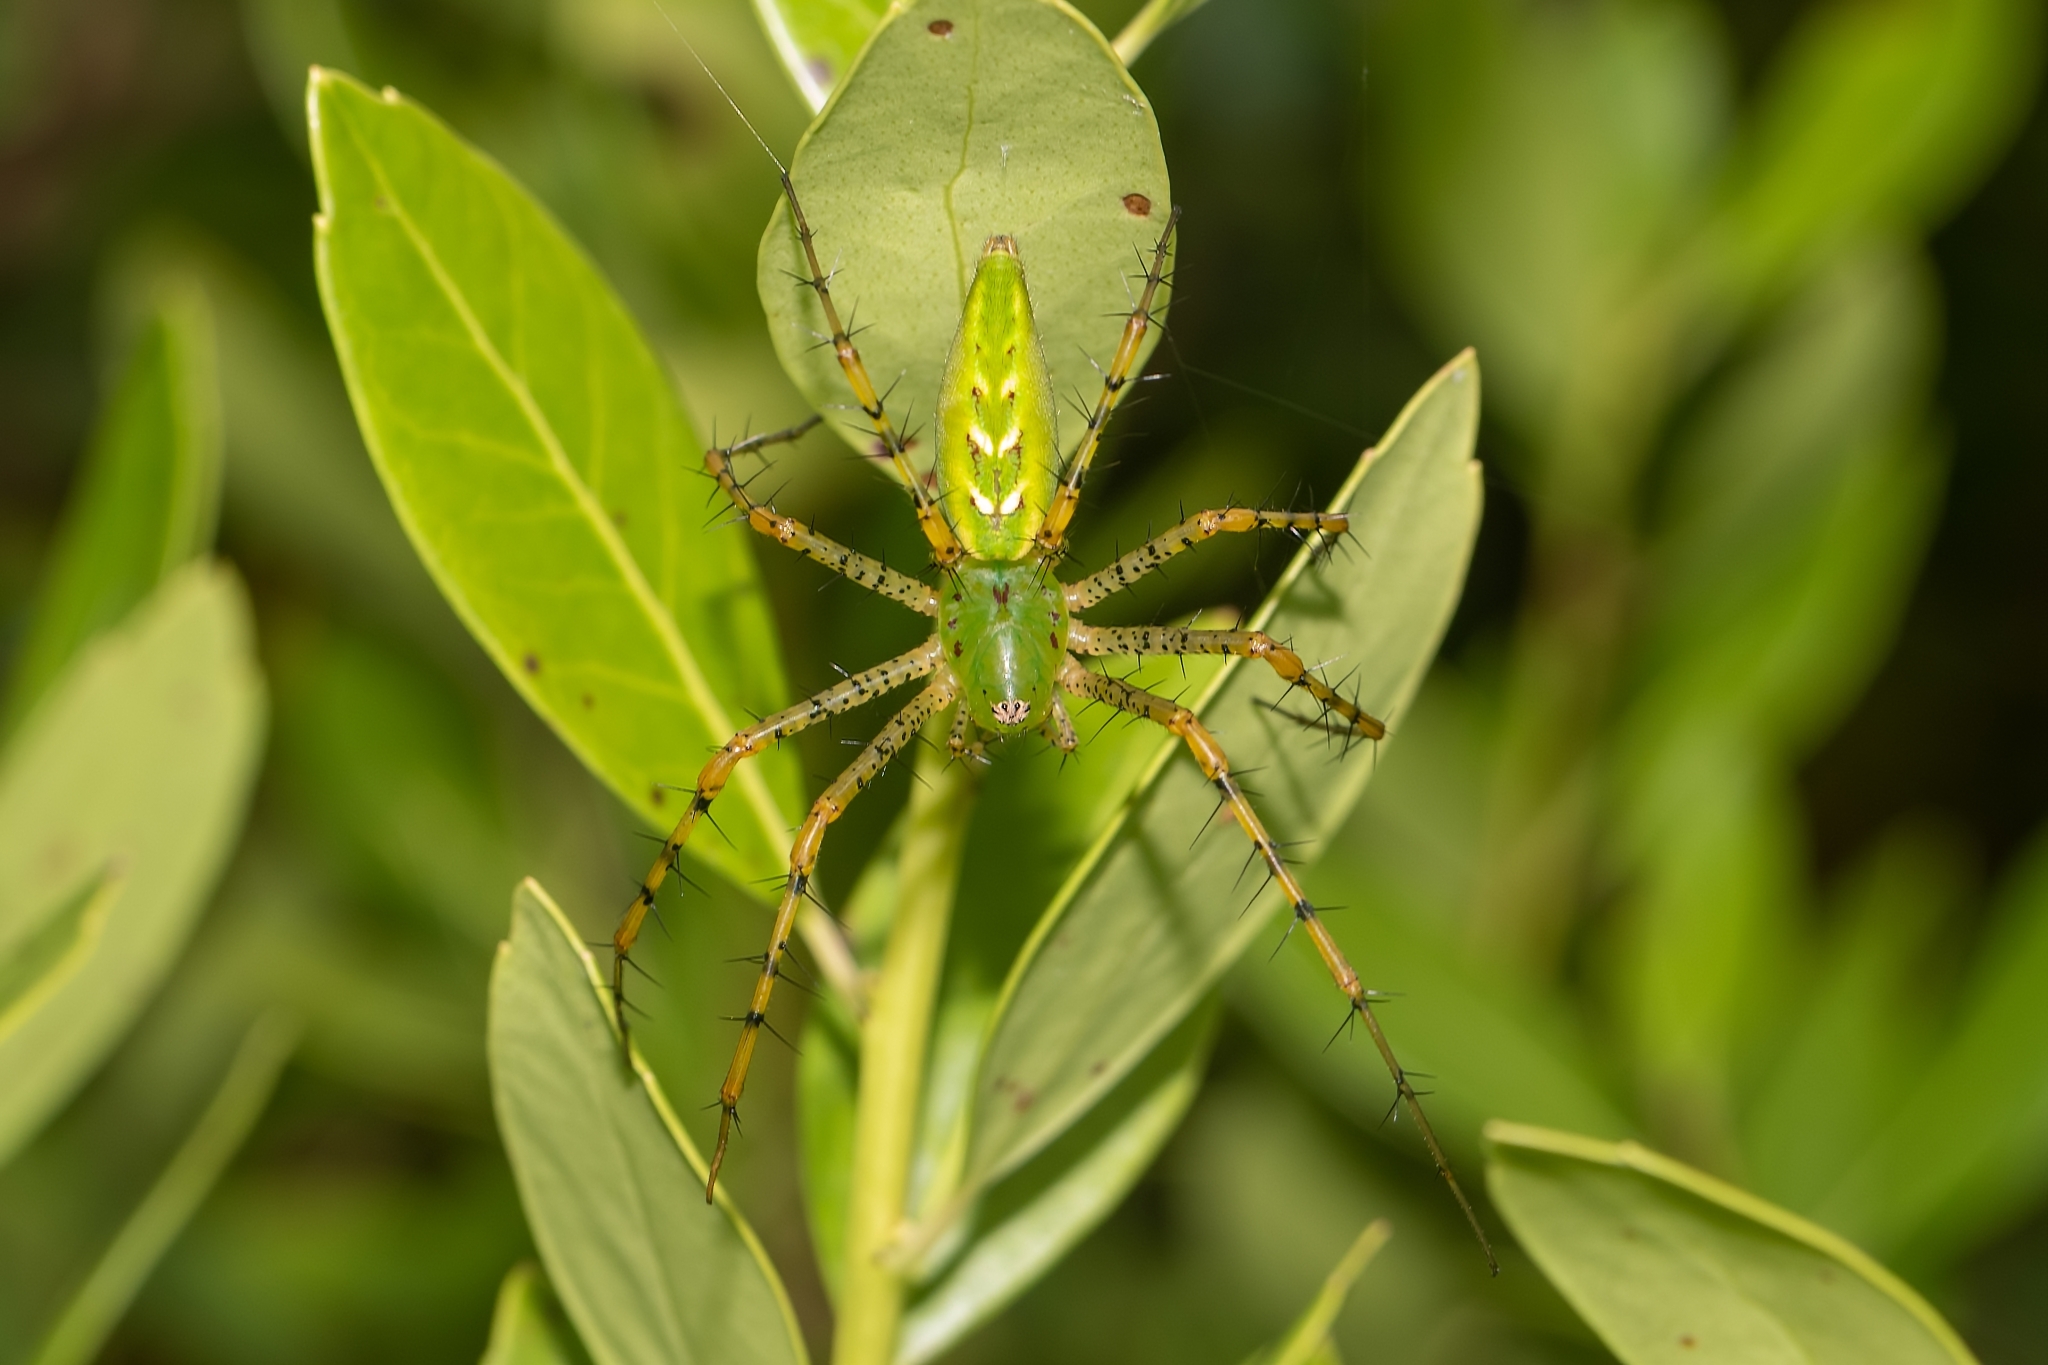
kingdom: Animalia
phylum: Arthropoda
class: Arachnida
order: Araneae
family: Oxyopidae
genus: Peucetia
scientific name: Peucetia viridans
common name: Lynx spiders
